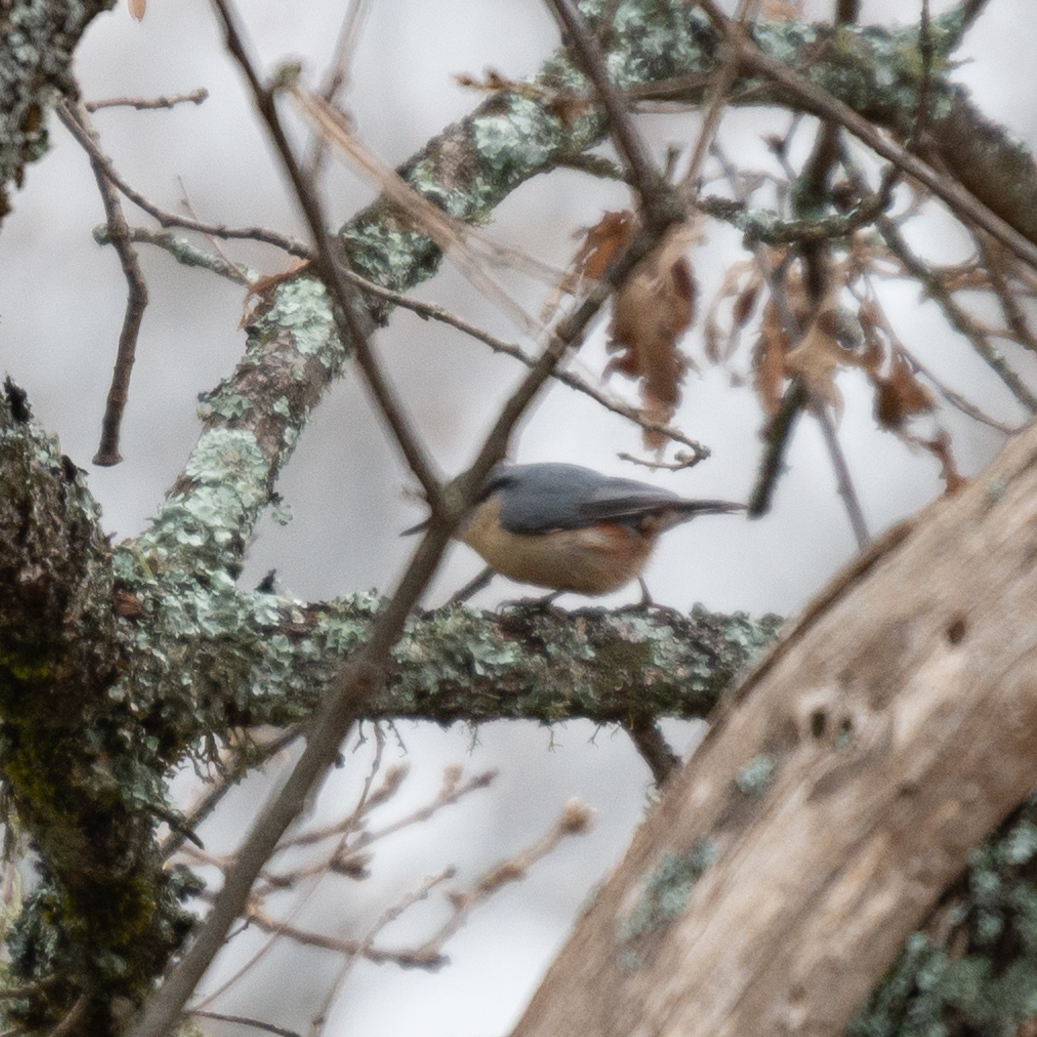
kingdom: Animalia
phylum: Chordata
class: Aves
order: Passeriformes
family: Sittidae
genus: Sitta
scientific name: Sitta europaea
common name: Eurasian nuthatch
